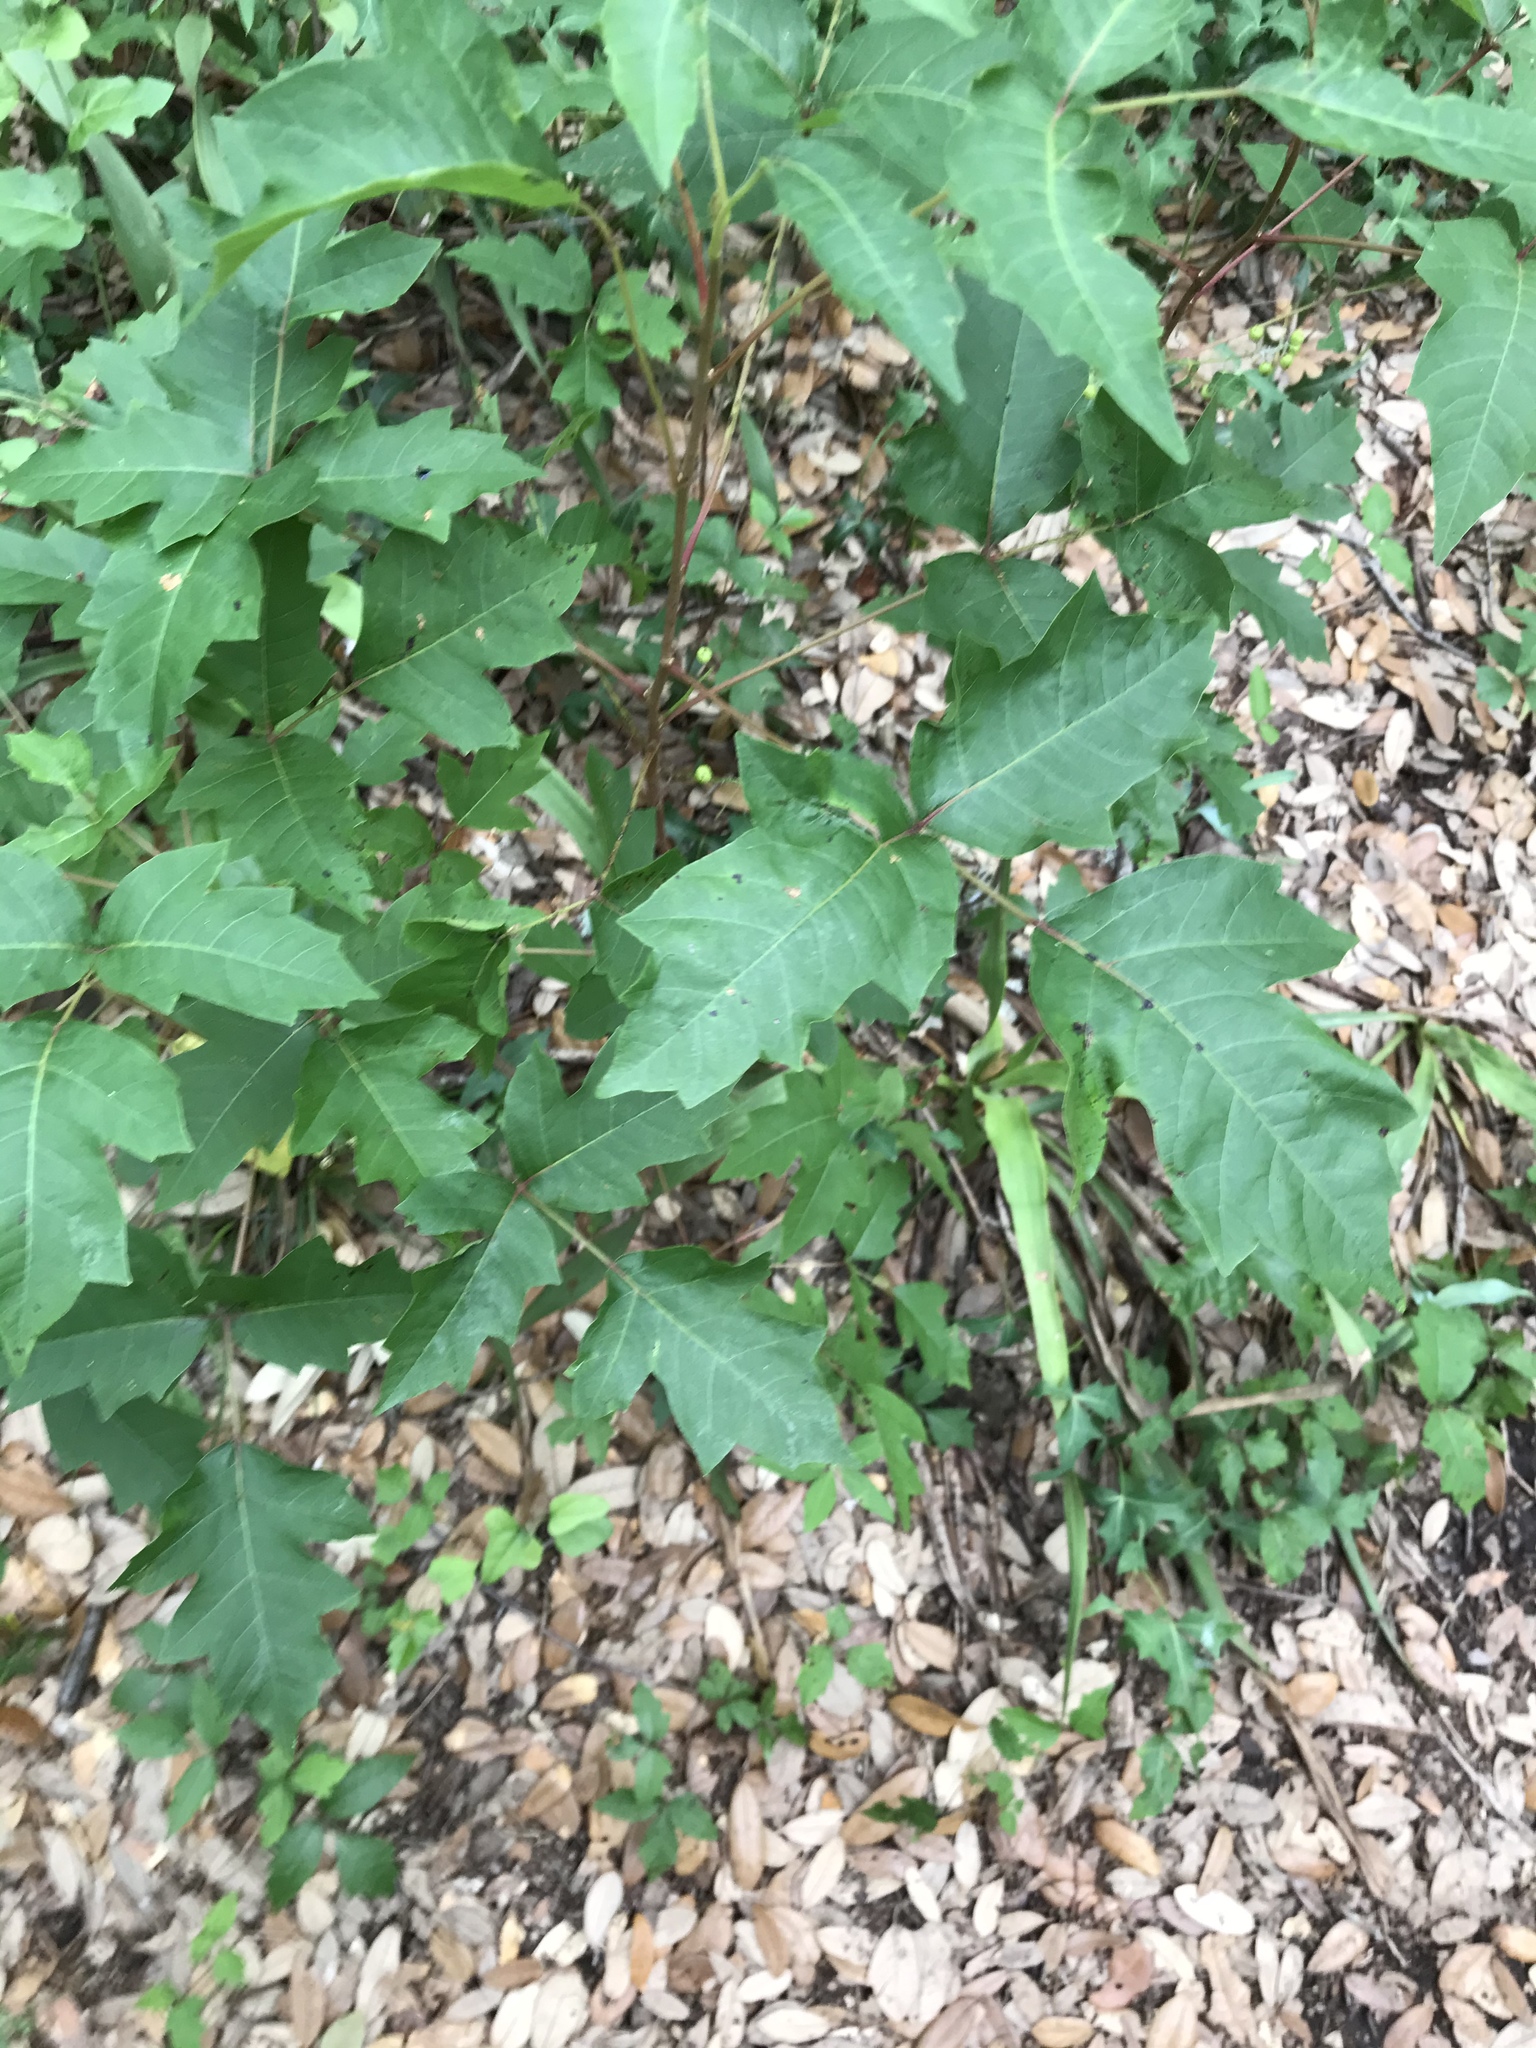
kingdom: Plantae
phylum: Tracheophyta
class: Magnoliopsida
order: Sapindales
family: Anacardiaceae
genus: Toxicodendron
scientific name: Toxicodendron radicans
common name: Poison ivy
